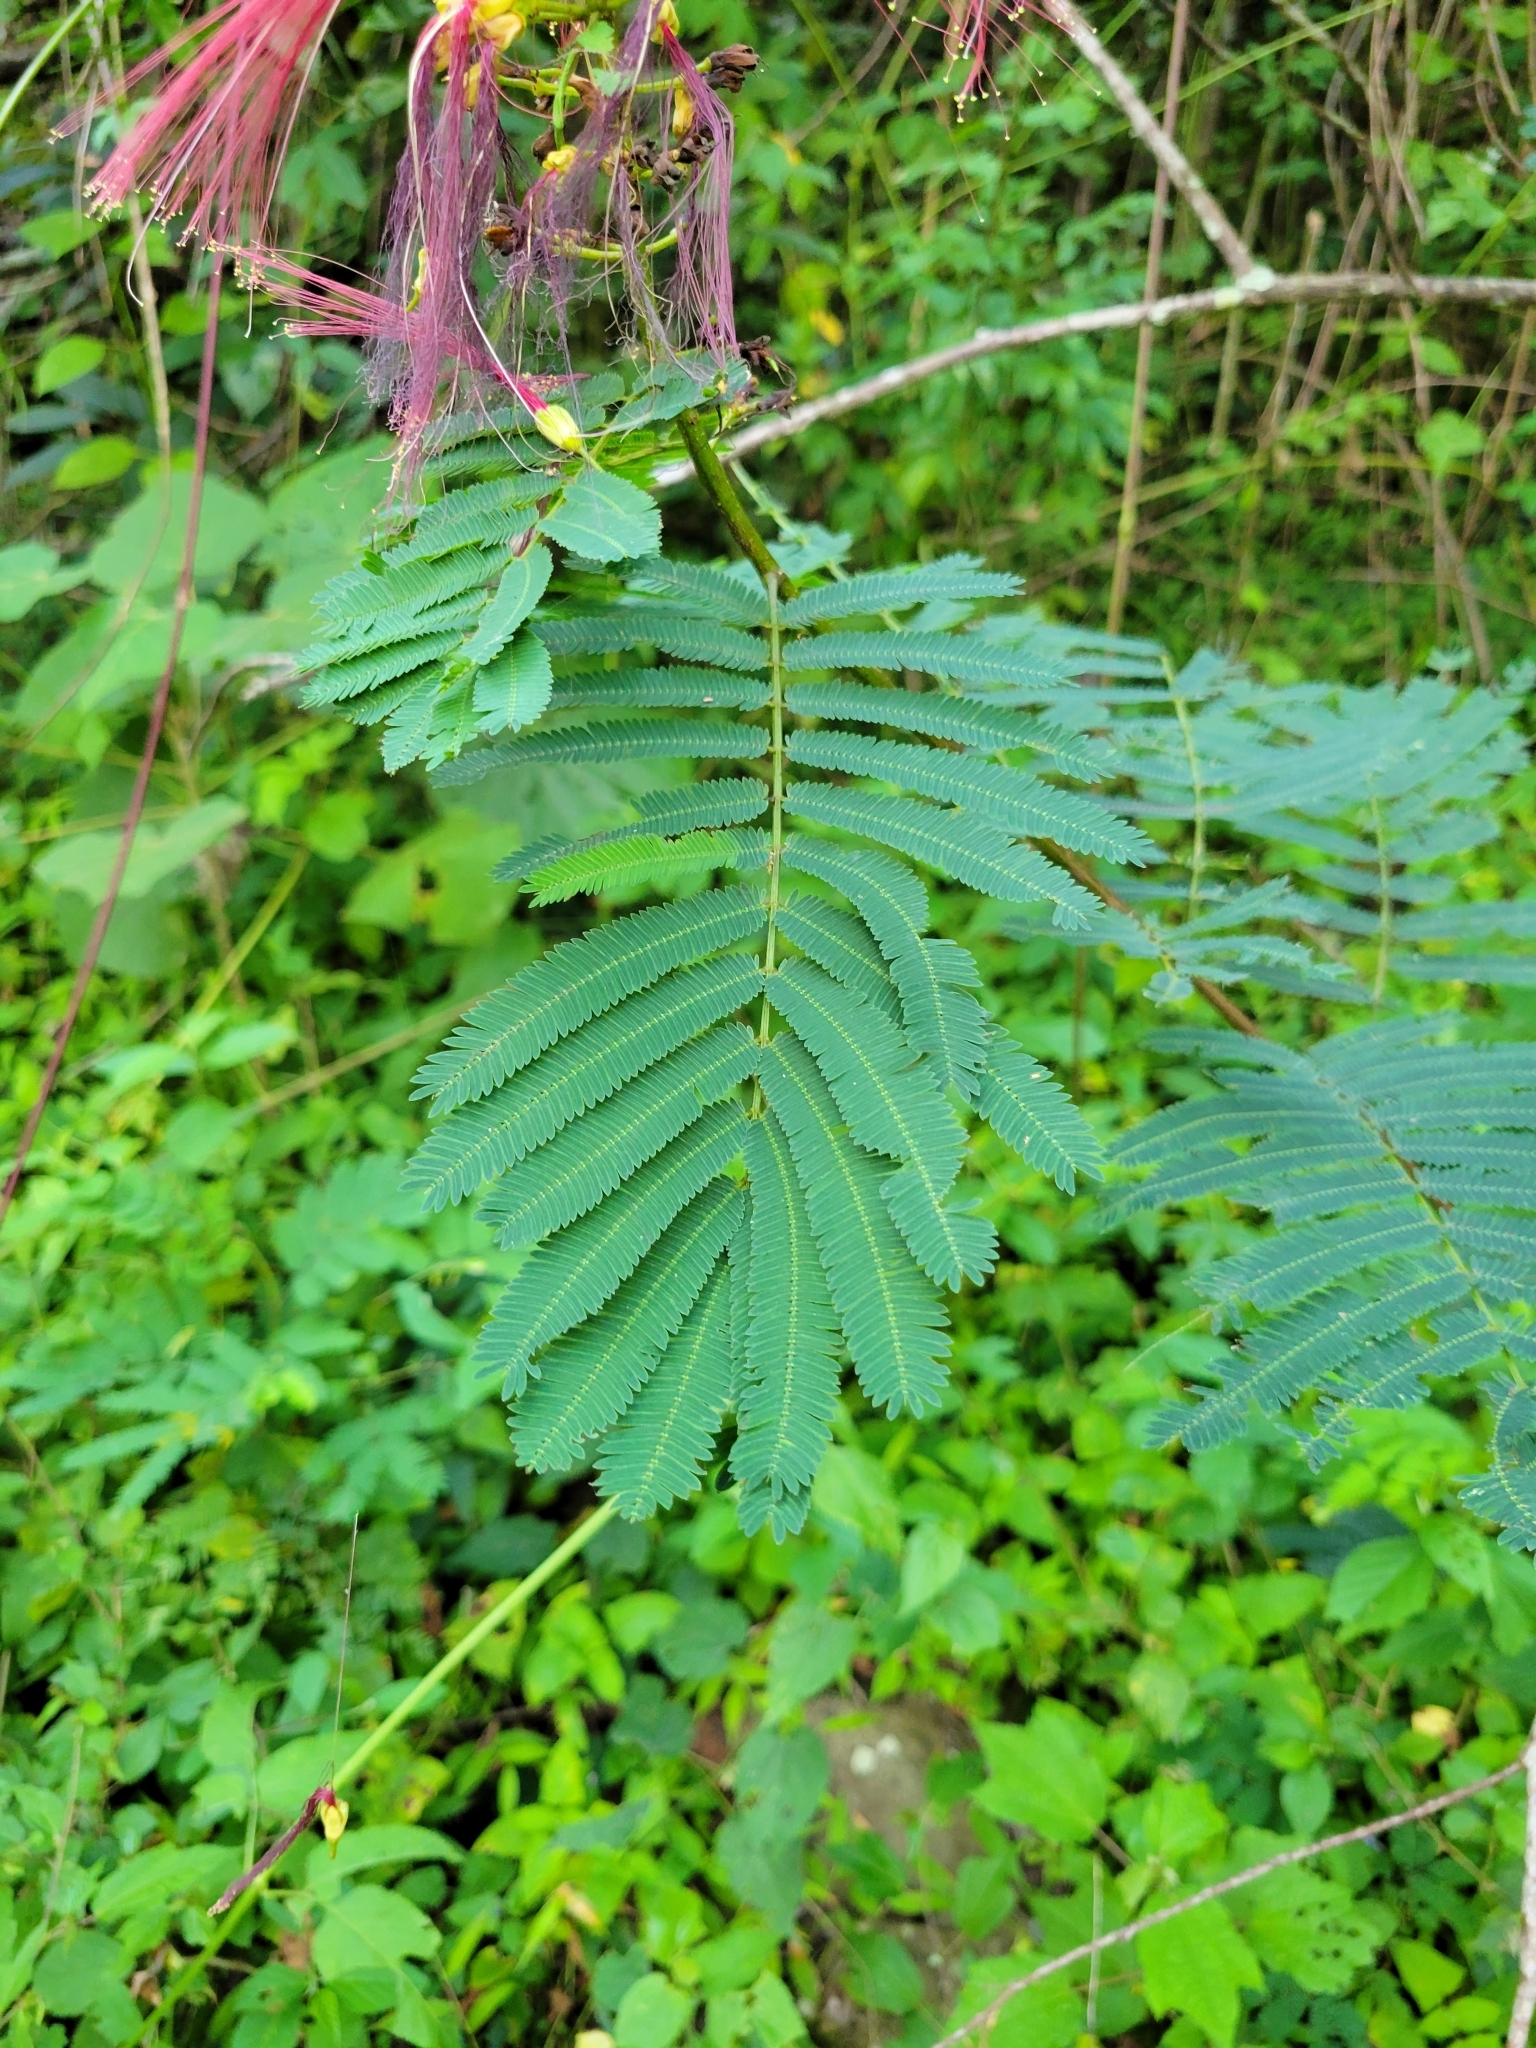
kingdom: Plantae
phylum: Tracheophyta
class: Magnoliopsida
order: Fabales
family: Fabaceae
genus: Calliandra
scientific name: Calliandra houstoniana
